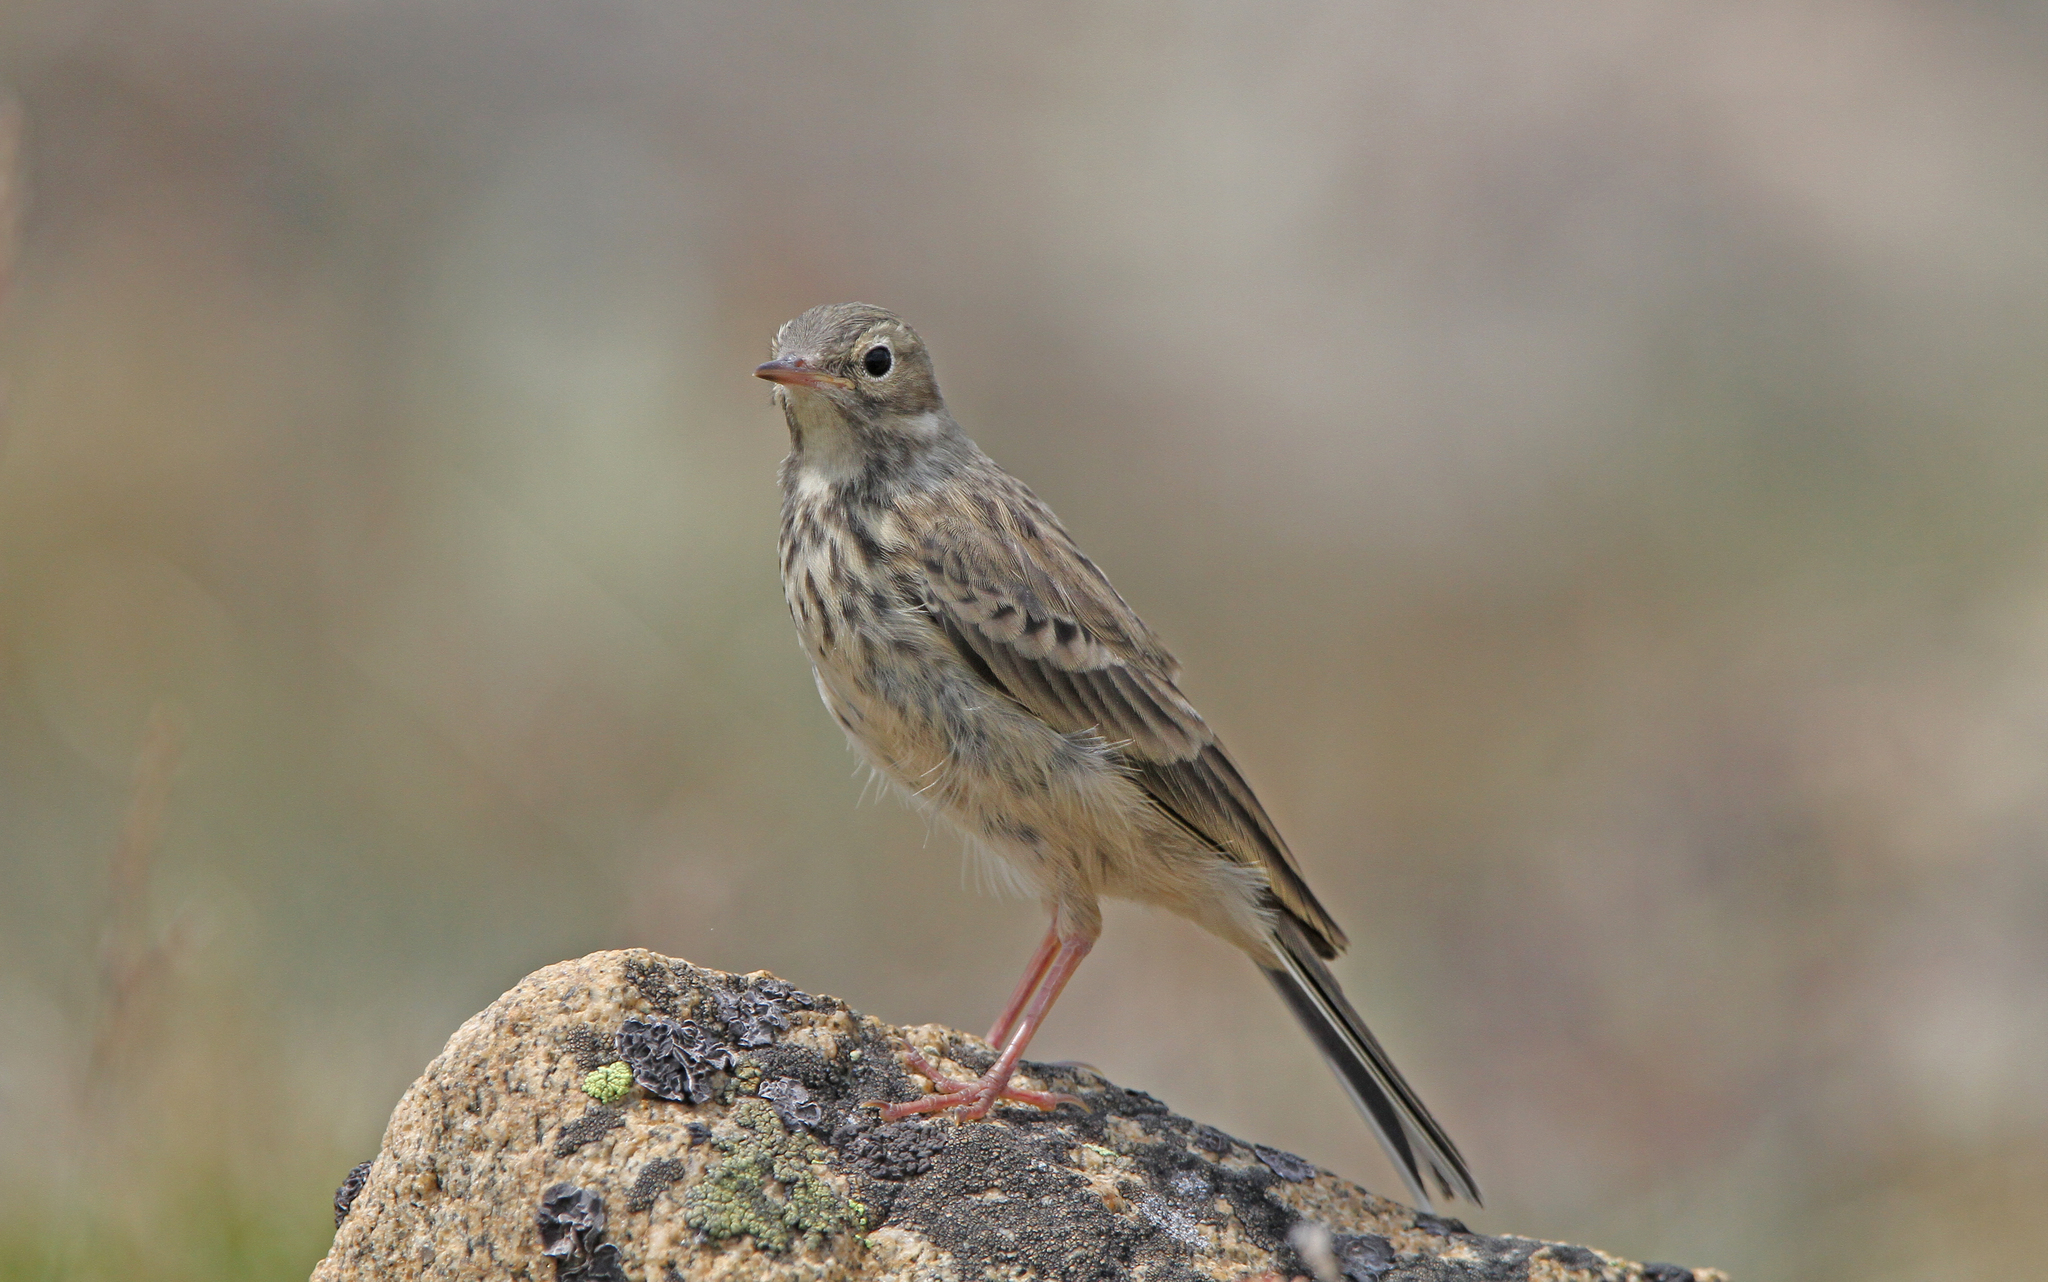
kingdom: Animalia
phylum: Chordata
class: Aves
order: Passeriformes
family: Motacillidae
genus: Anthus
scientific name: Anthus rubescens
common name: Buff-bellied pipit
